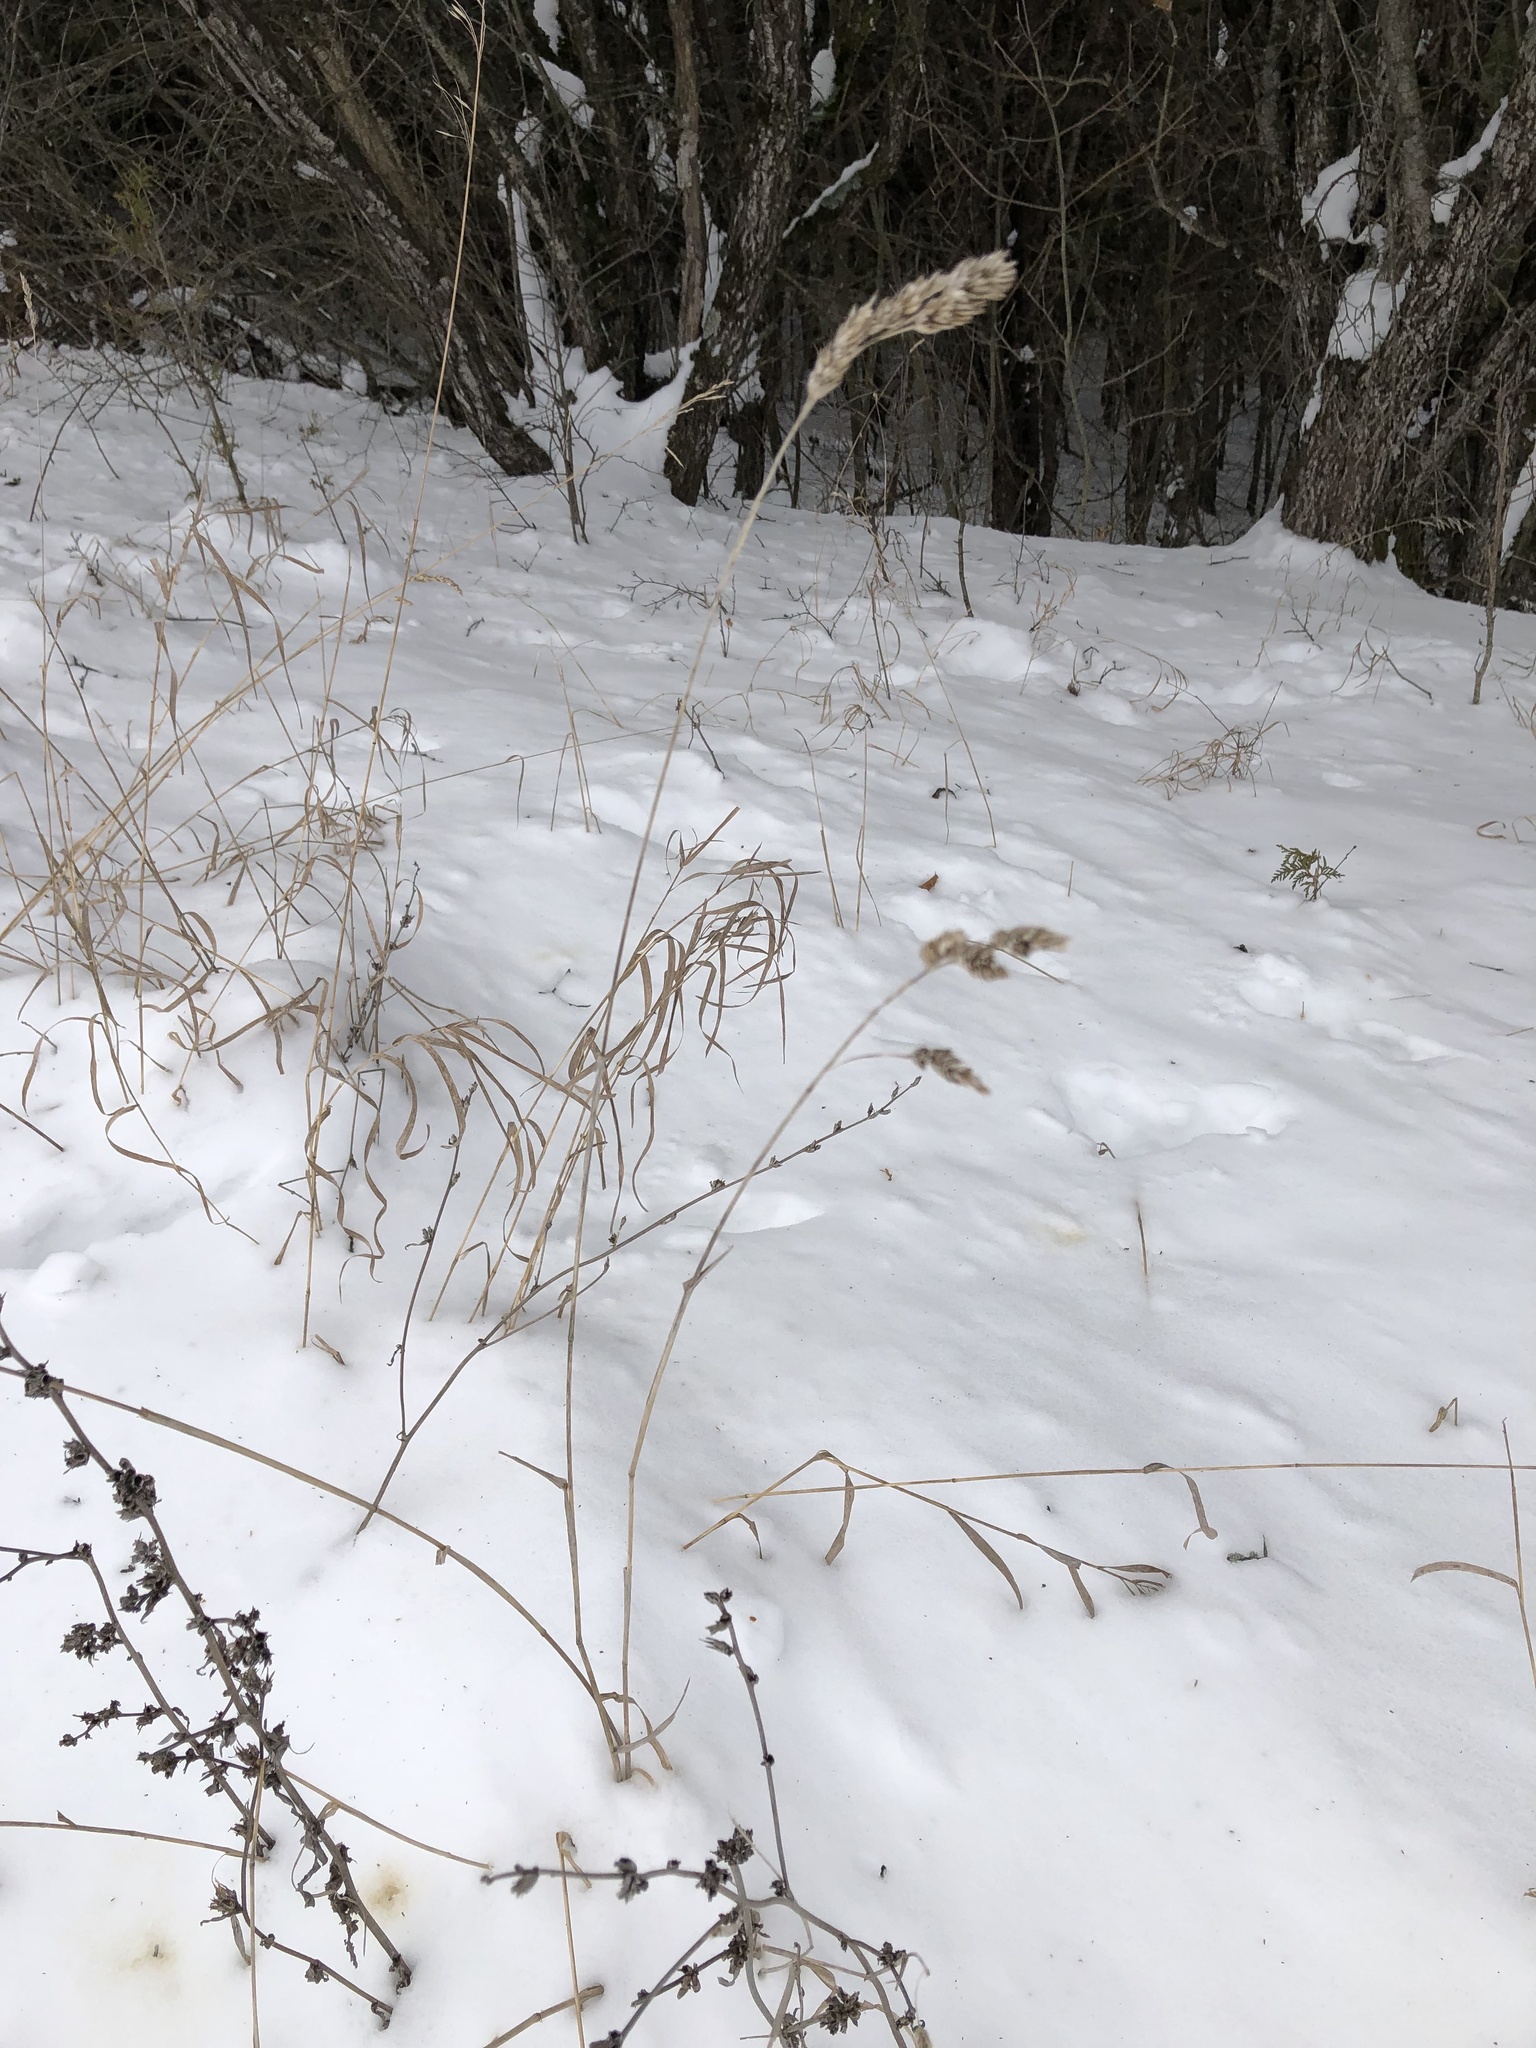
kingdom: Plantae
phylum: Tracheophyta
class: Liliopsida
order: Poales
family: Poaceae
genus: Dactylis
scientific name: Dactylis glomerata
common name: Orchardgrass
